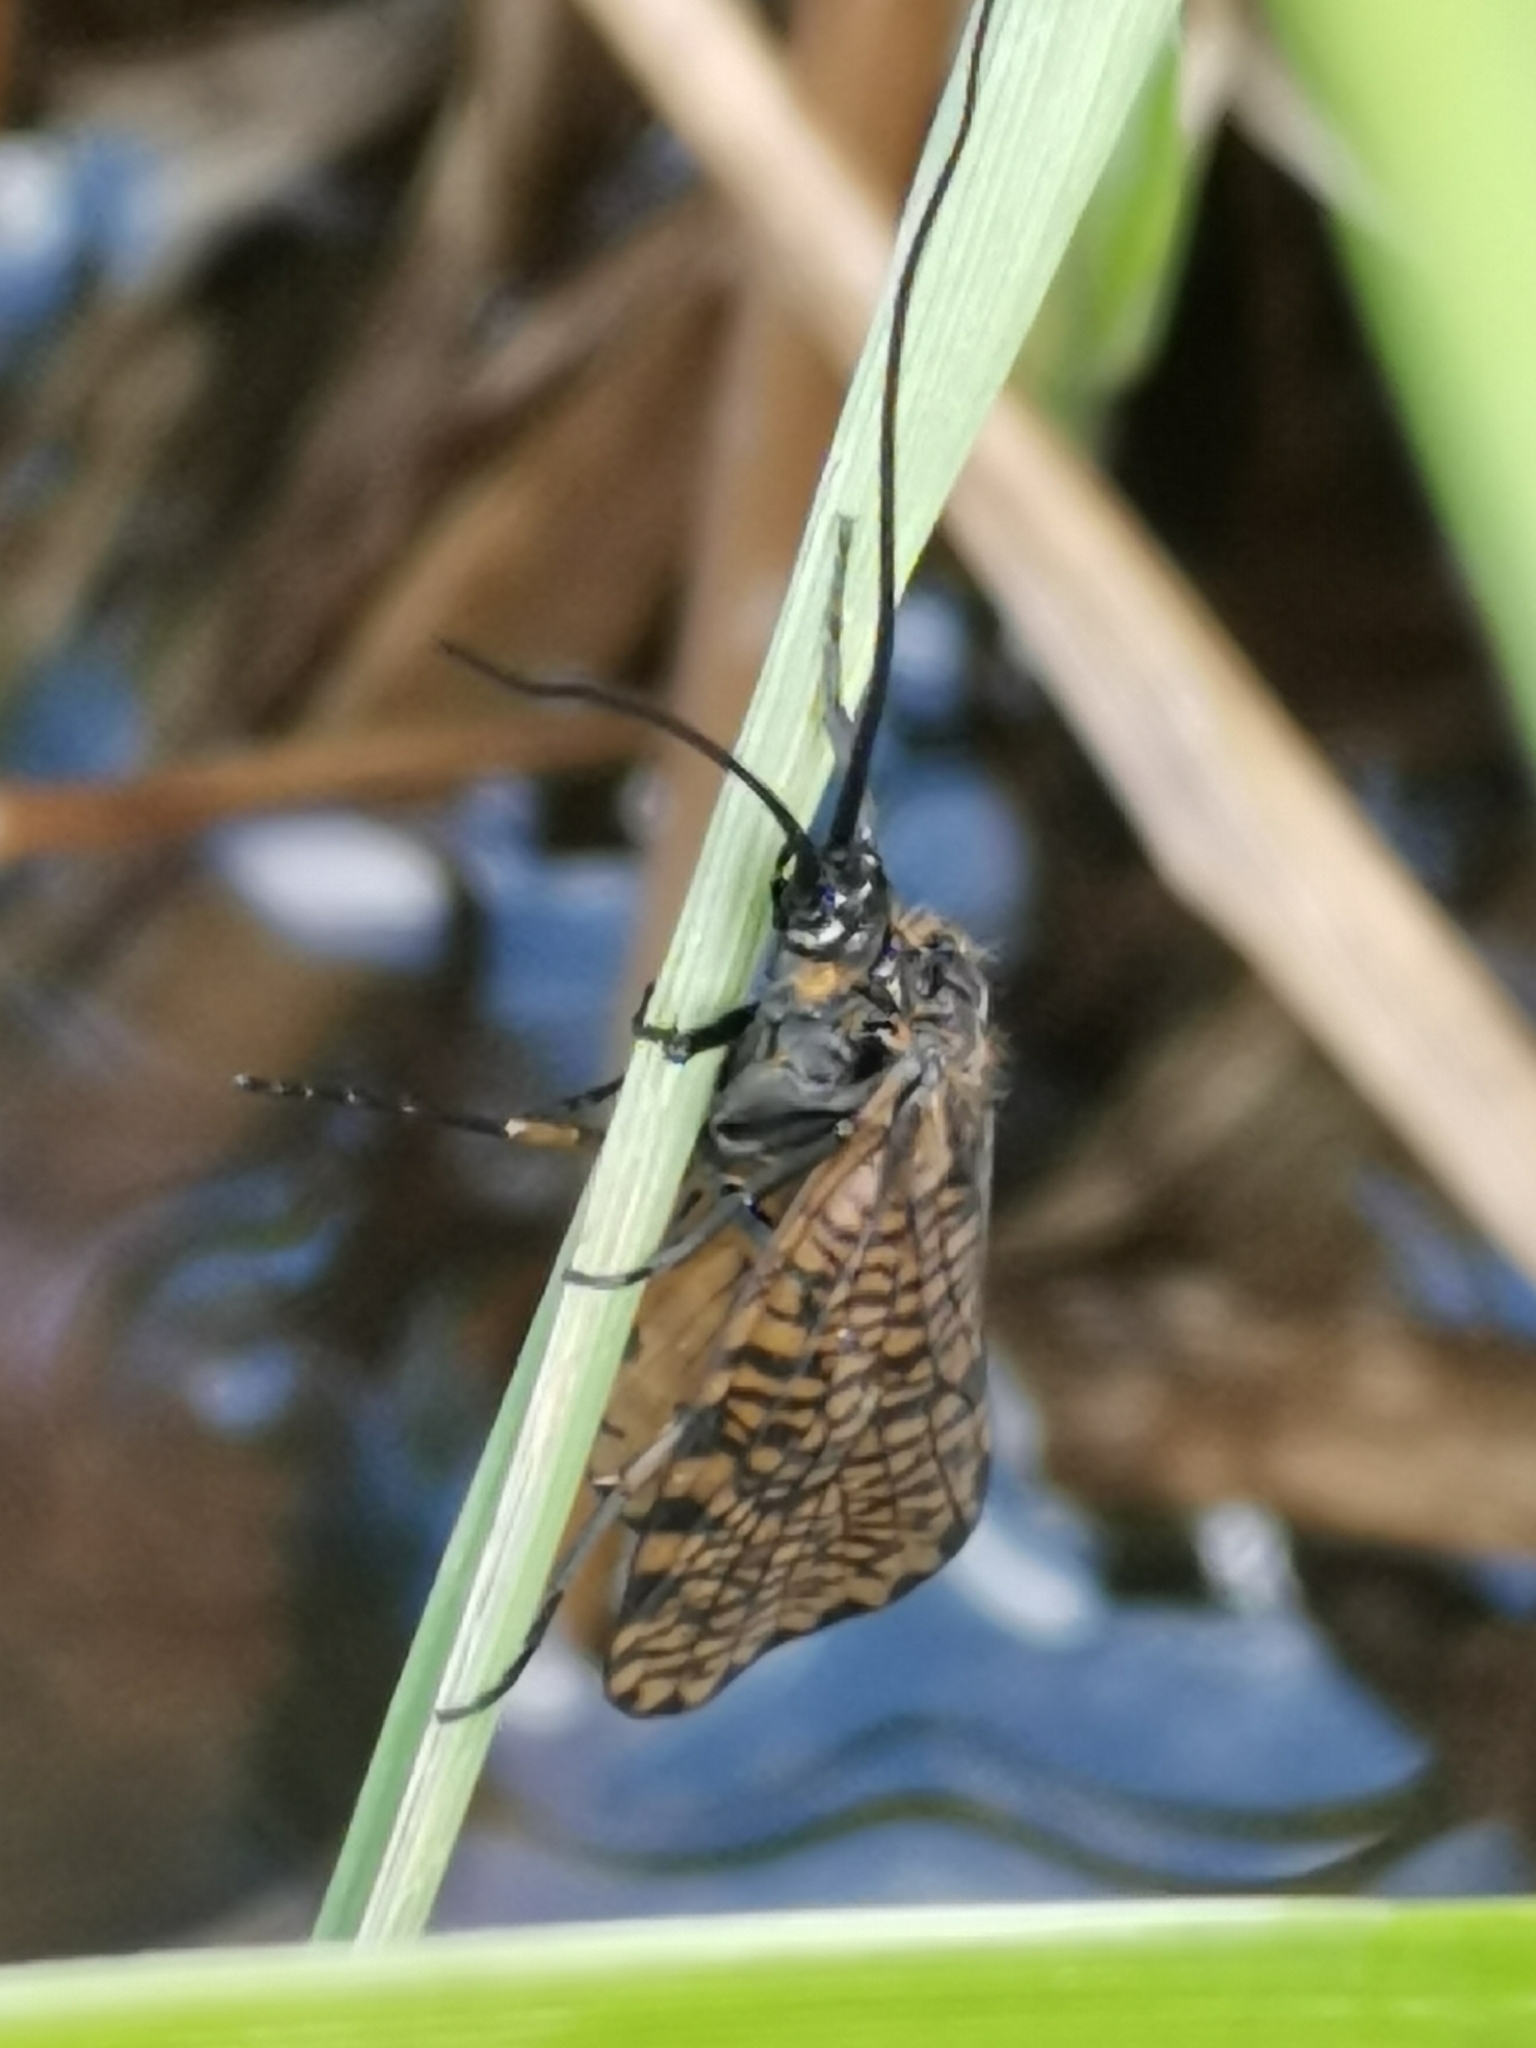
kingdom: Animalia
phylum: Arthropoda
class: Insecta
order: Trichoptera
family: Phryganeidae
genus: Oligostomis
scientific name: Oligostomis reticulata
